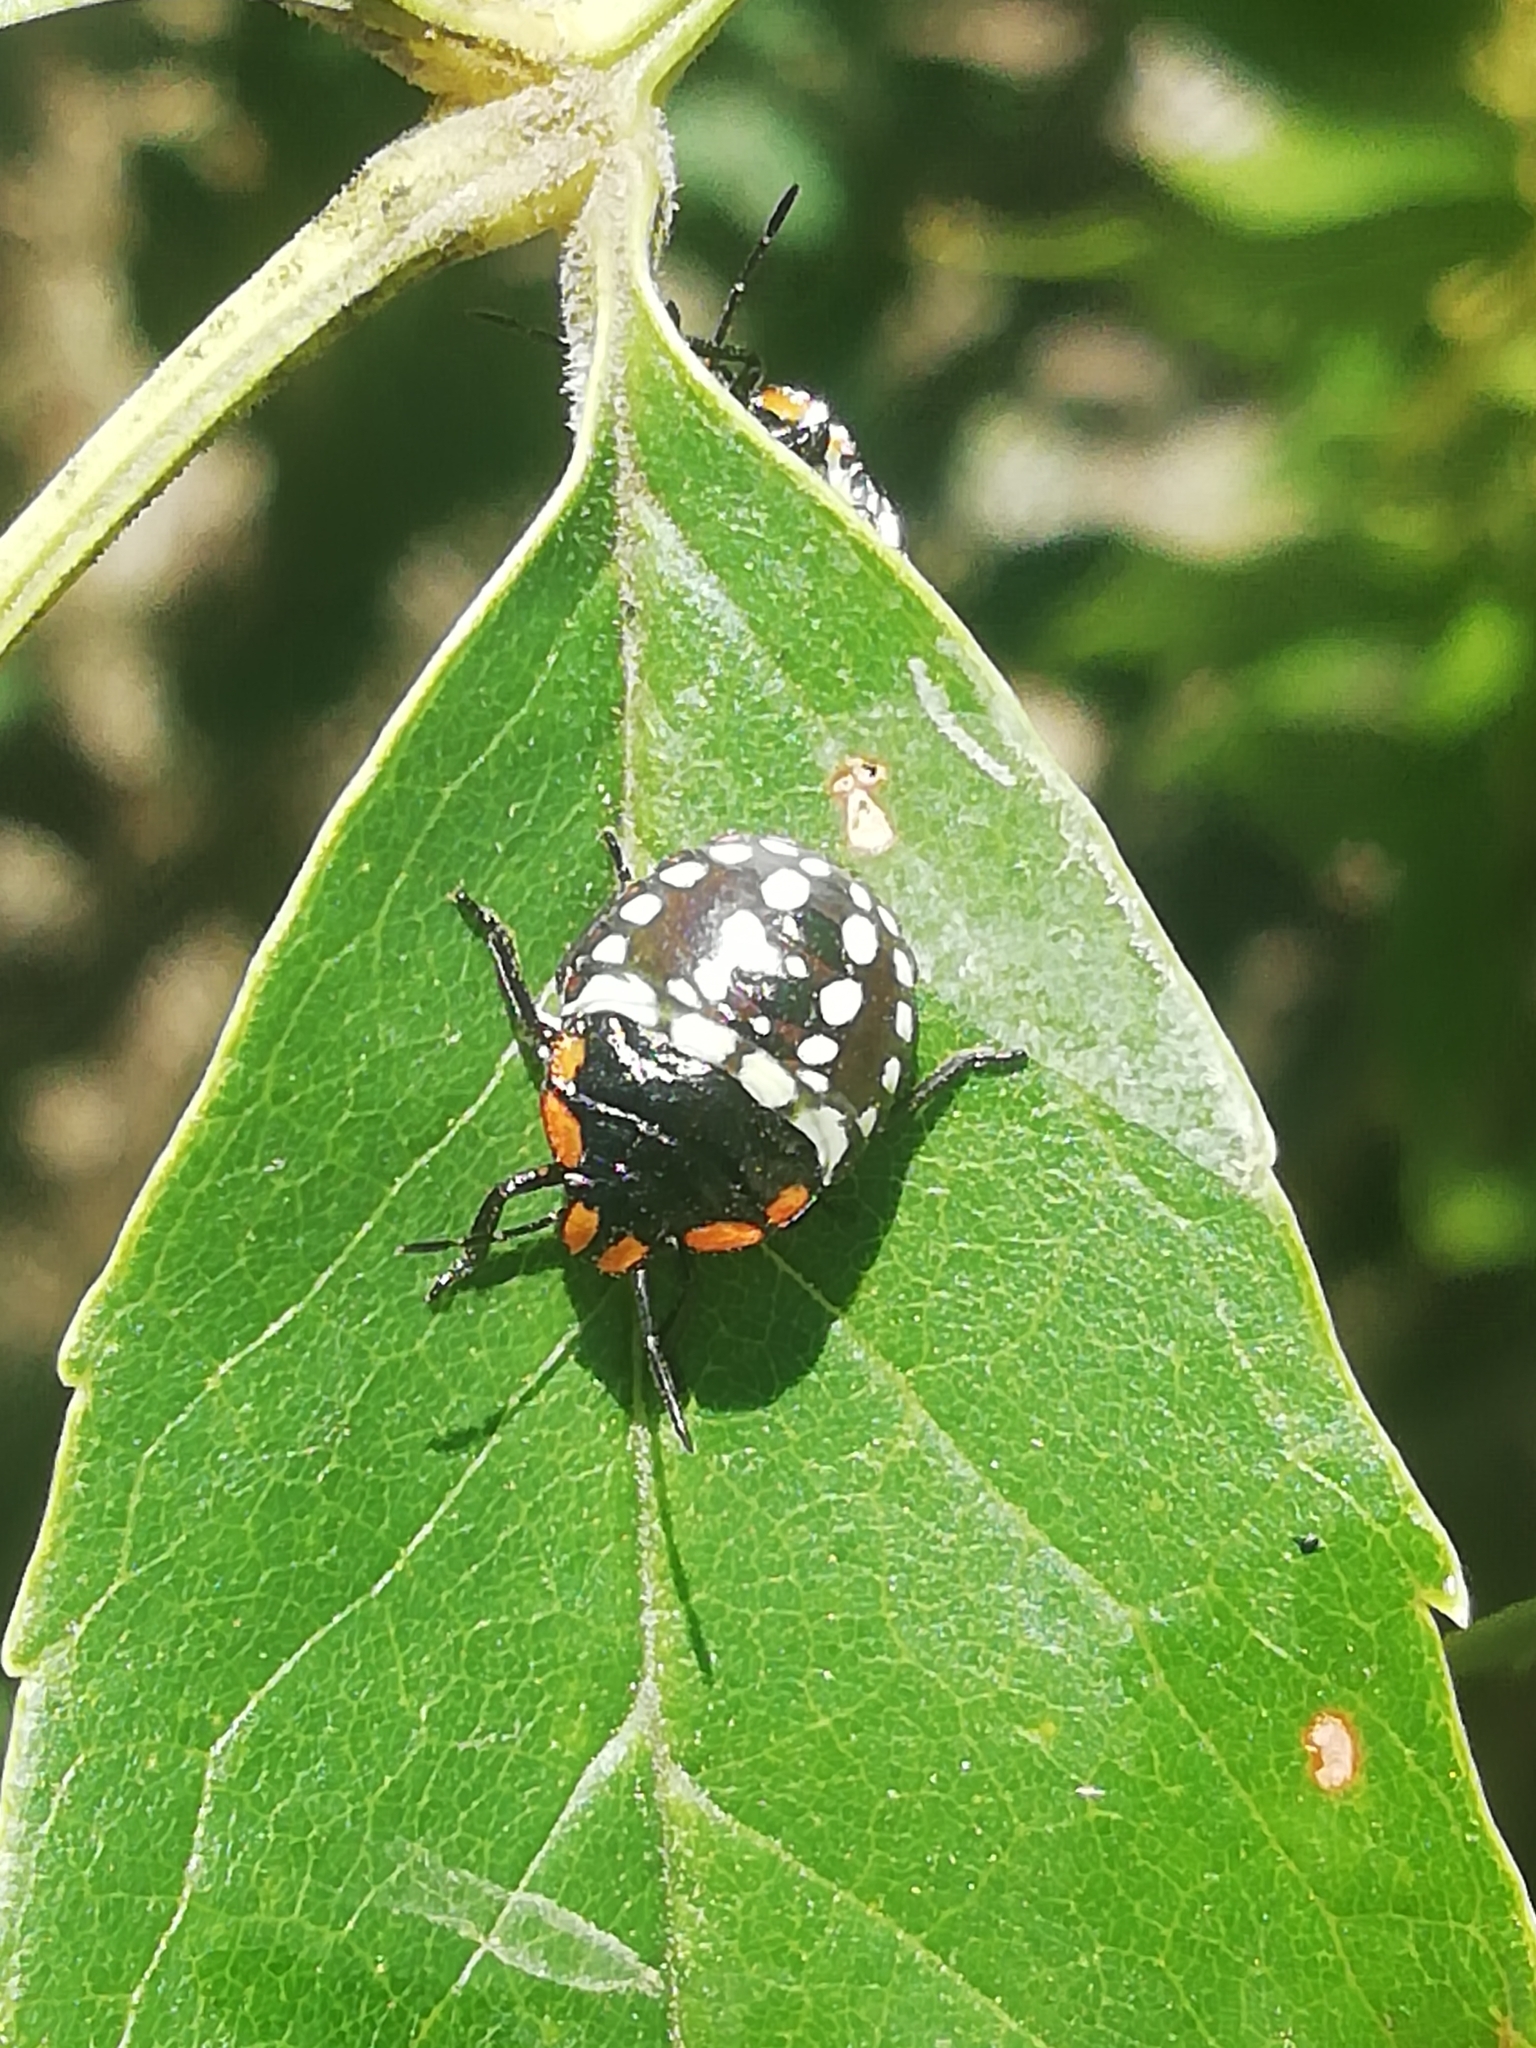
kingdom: Animalia
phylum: Arthropoda
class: Insecta
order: Hemiptera
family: Pentatomidae
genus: Nezara
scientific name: Nezara viridula
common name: Southern green stink bug
